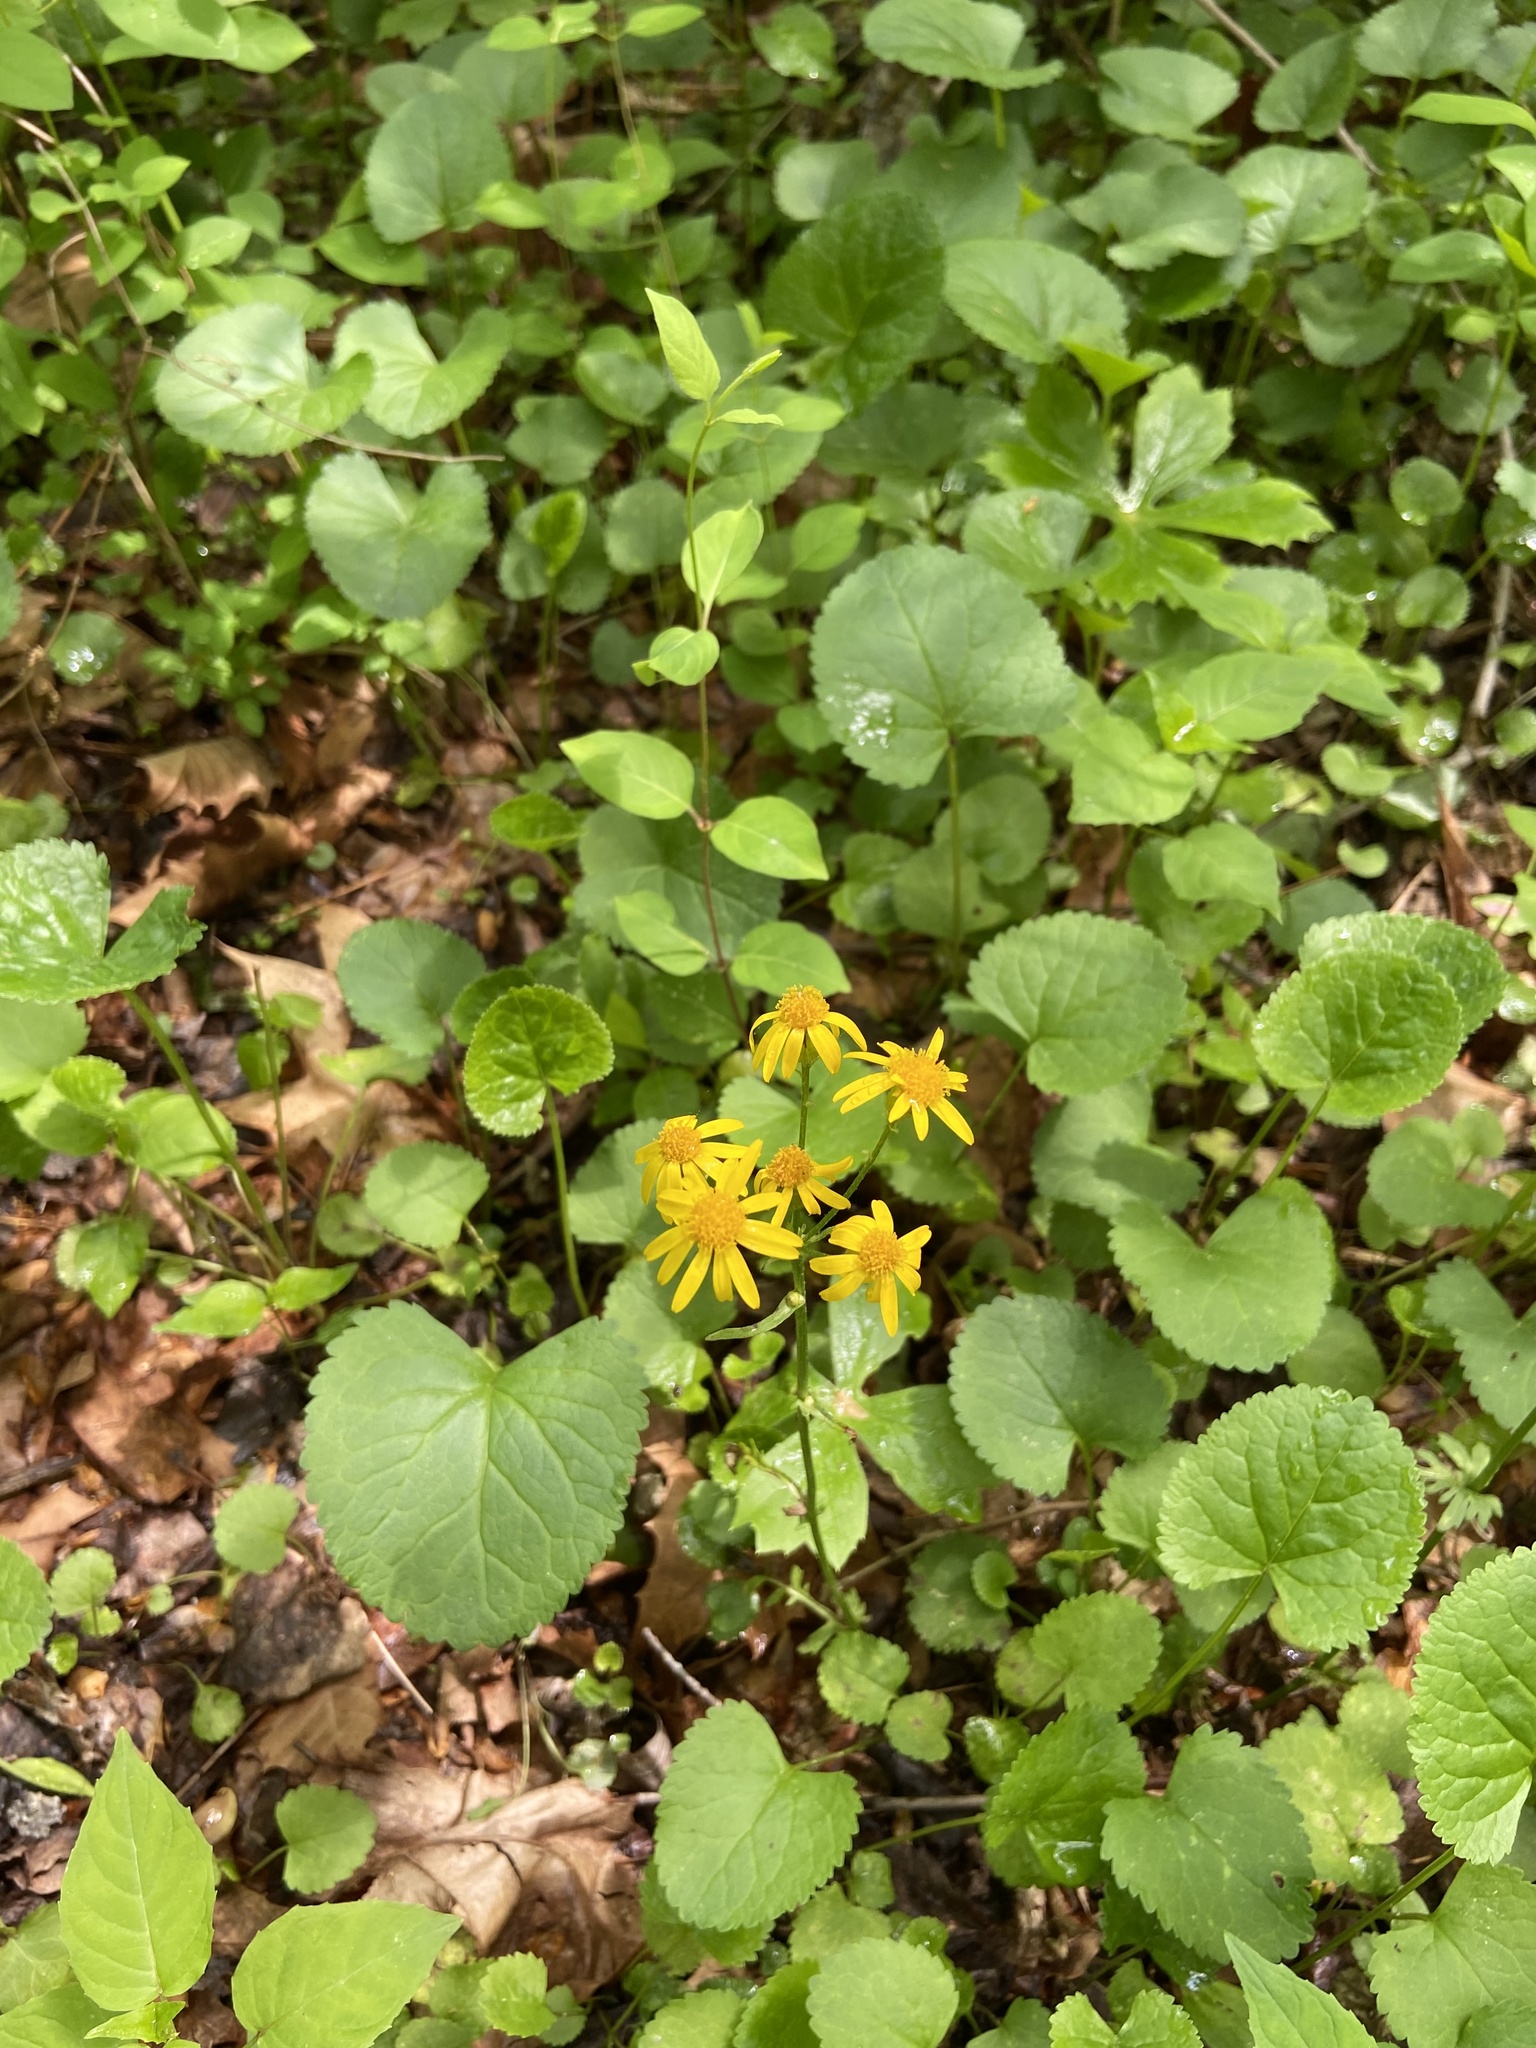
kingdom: Plantae
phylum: Tracheophyta
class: Magnoliopsida
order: Asterales
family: Asteraceae
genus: Packera
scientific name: Packera aurea
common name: Golden groundsel
